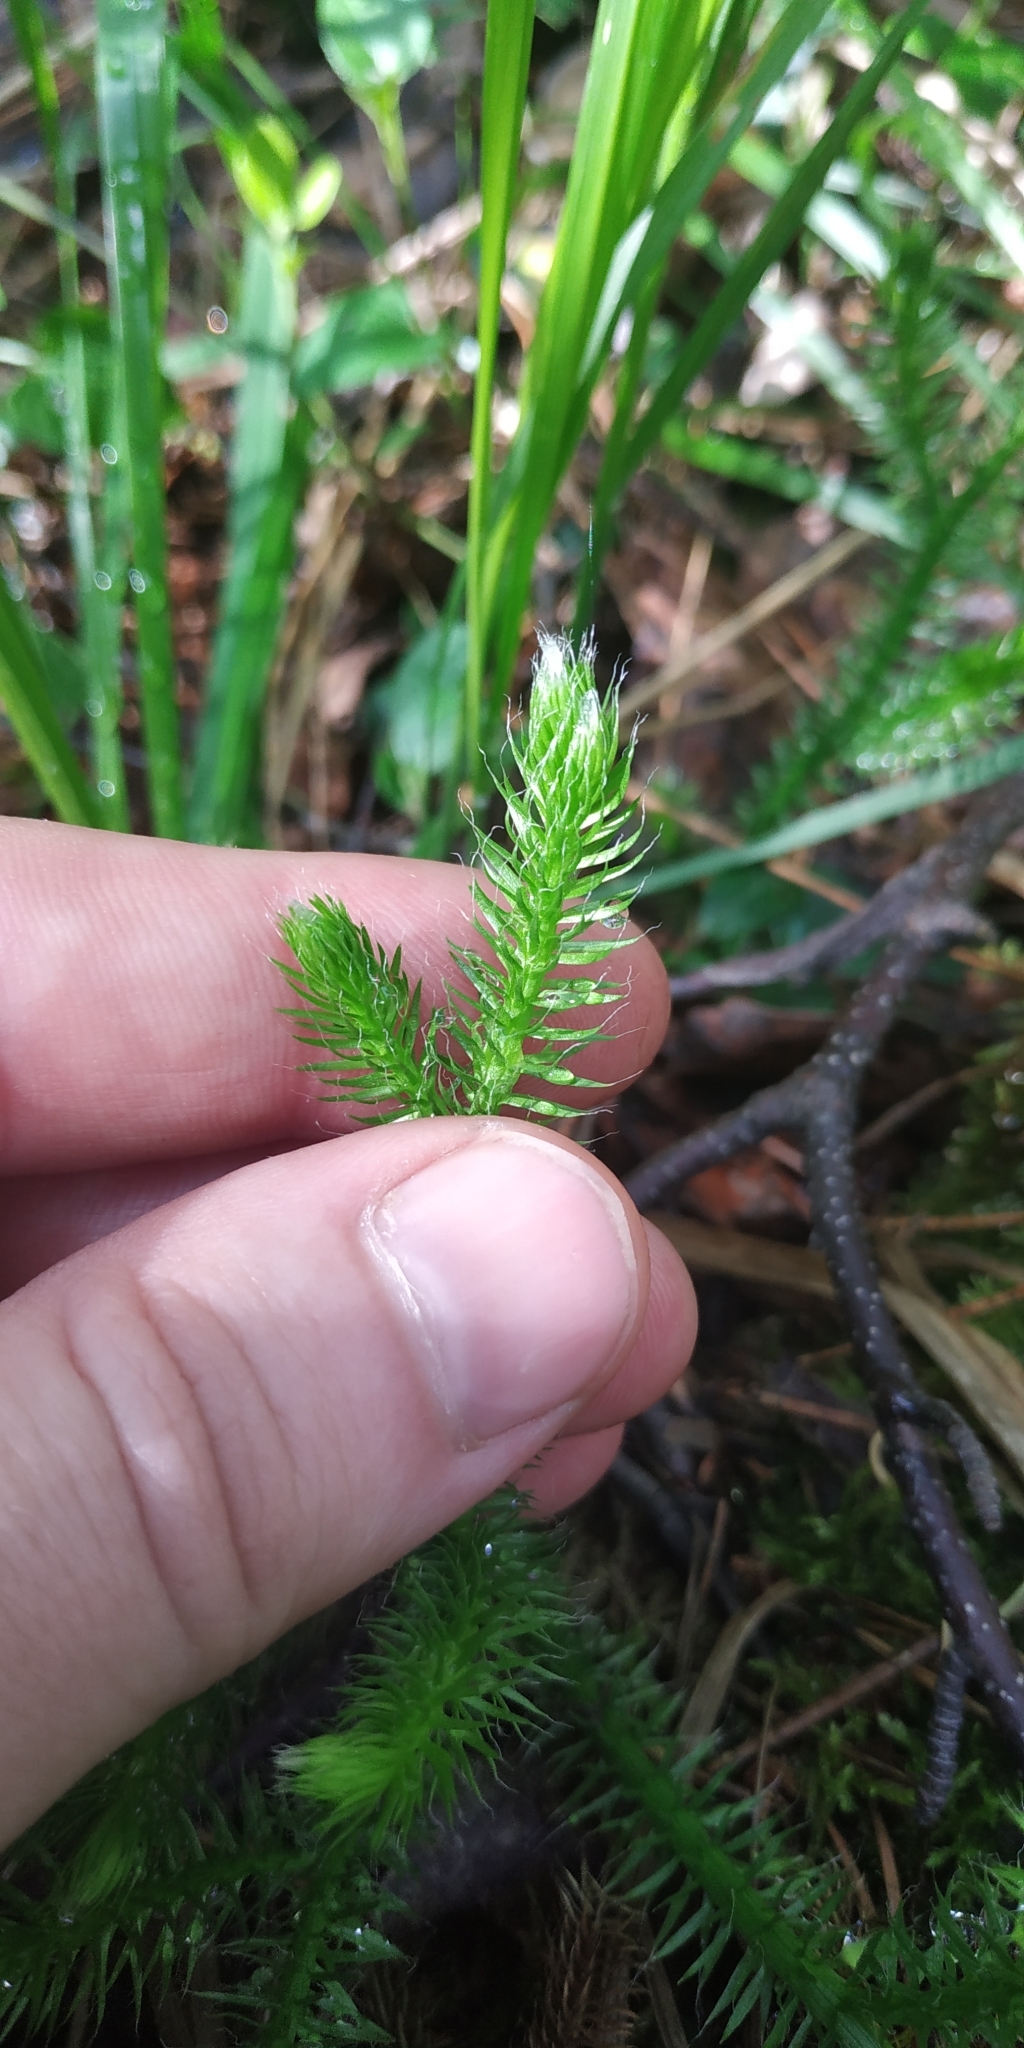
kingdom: Plantae
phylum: Tracheophyta
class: Lycopodiopsida
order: Lycopodiales
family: Lycopodiaceae
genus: Lycopodium
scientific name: Lycopodium clavatum
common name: Stag's-horn clubmoss
